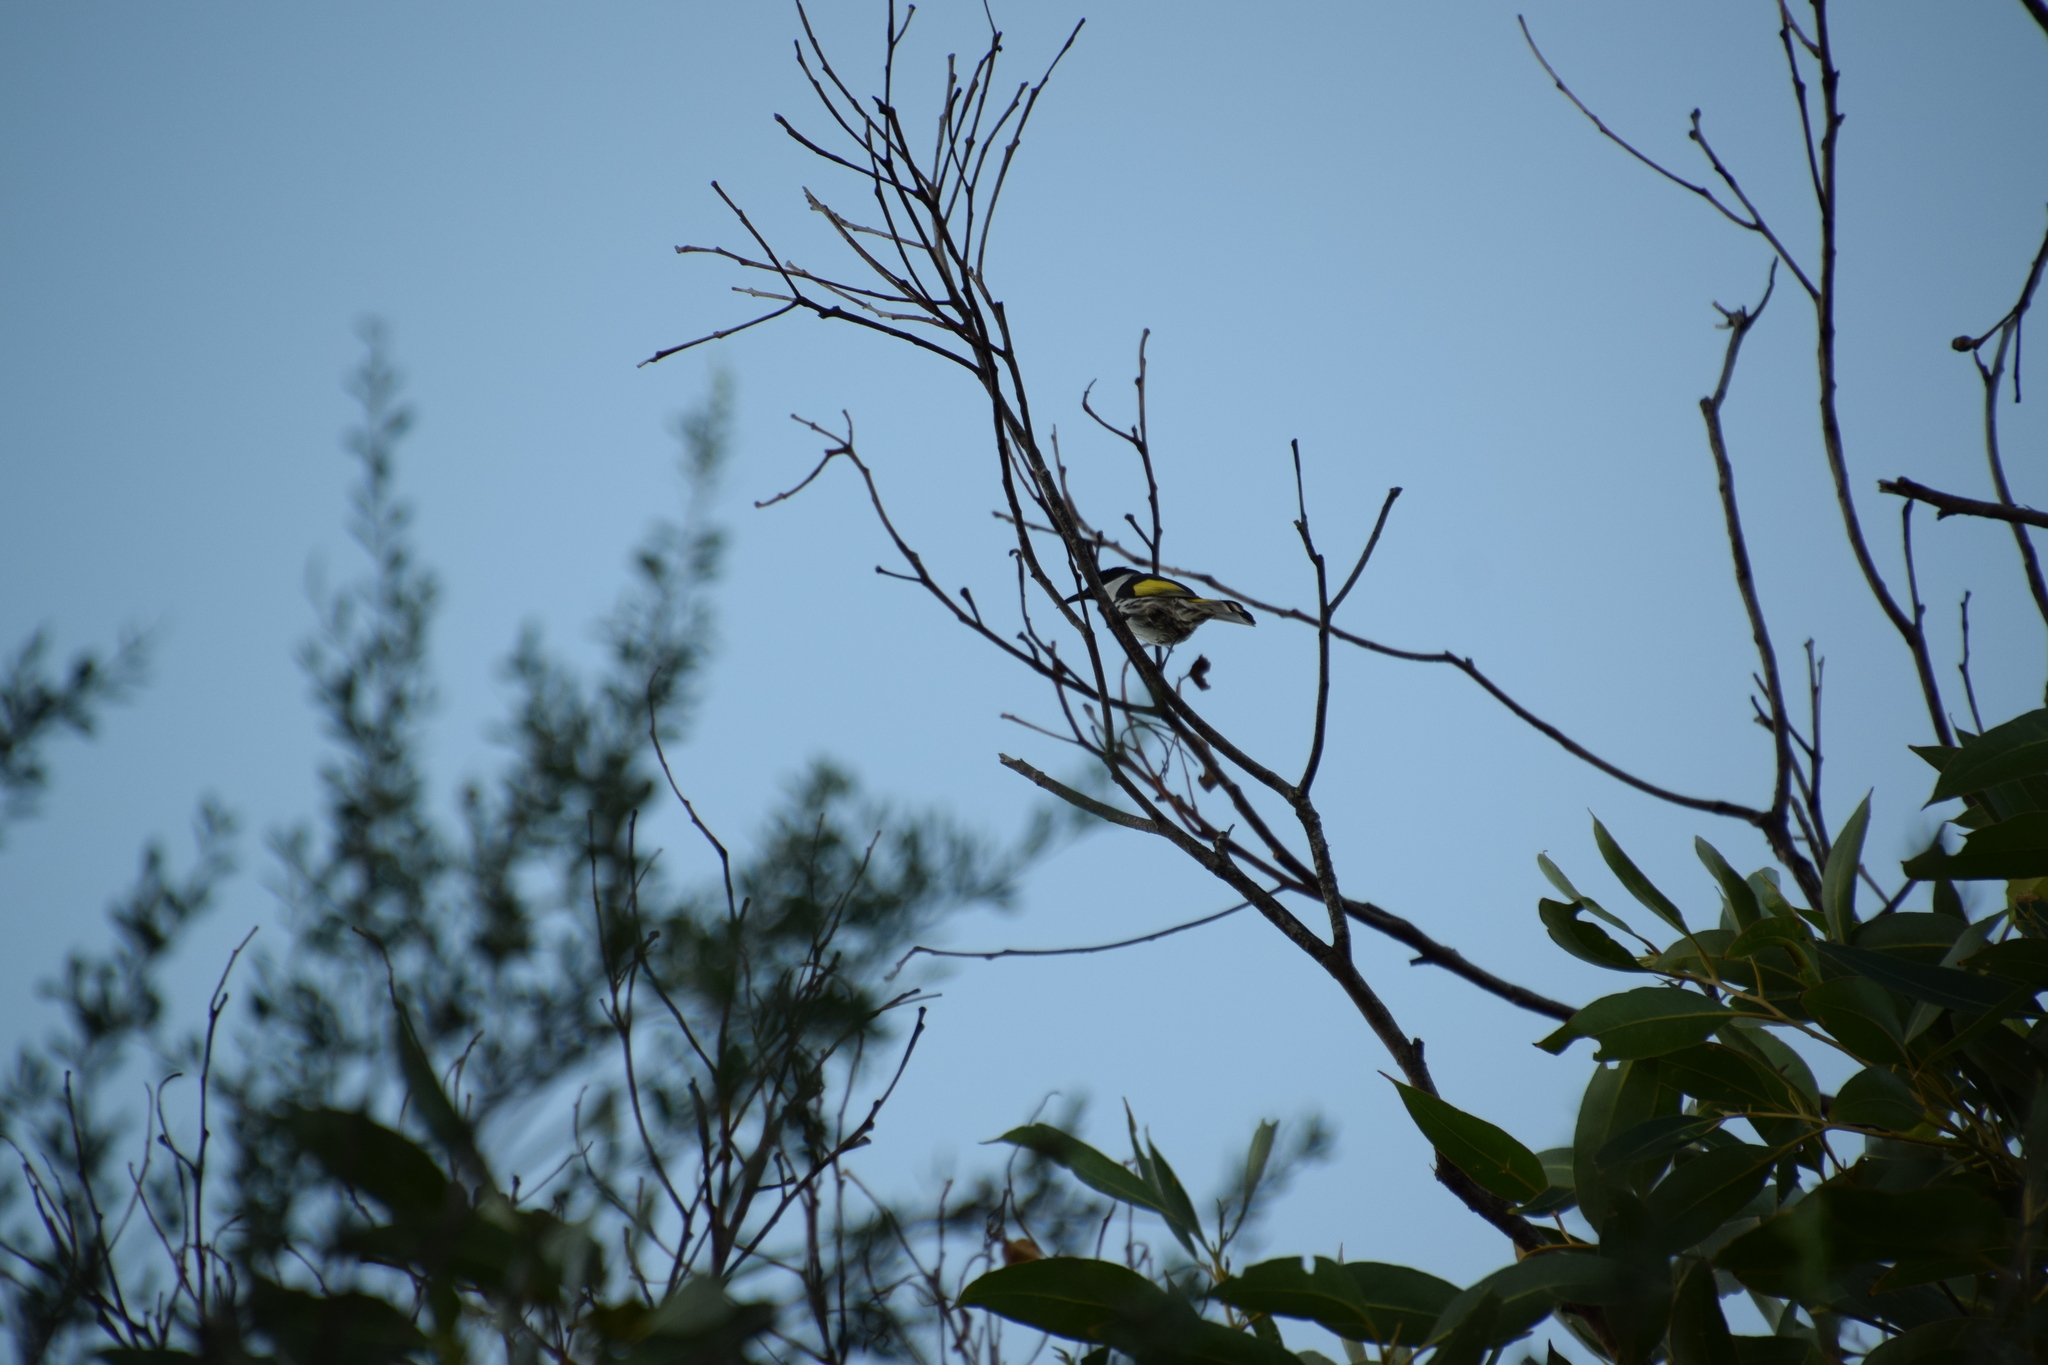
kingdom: Animalia
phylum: Chordata
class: Aves
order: Passeriformes
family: Meliphagidae
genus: Phylidonyris
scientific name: Phylidonyris niger
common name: White-cheeked honeyeater
